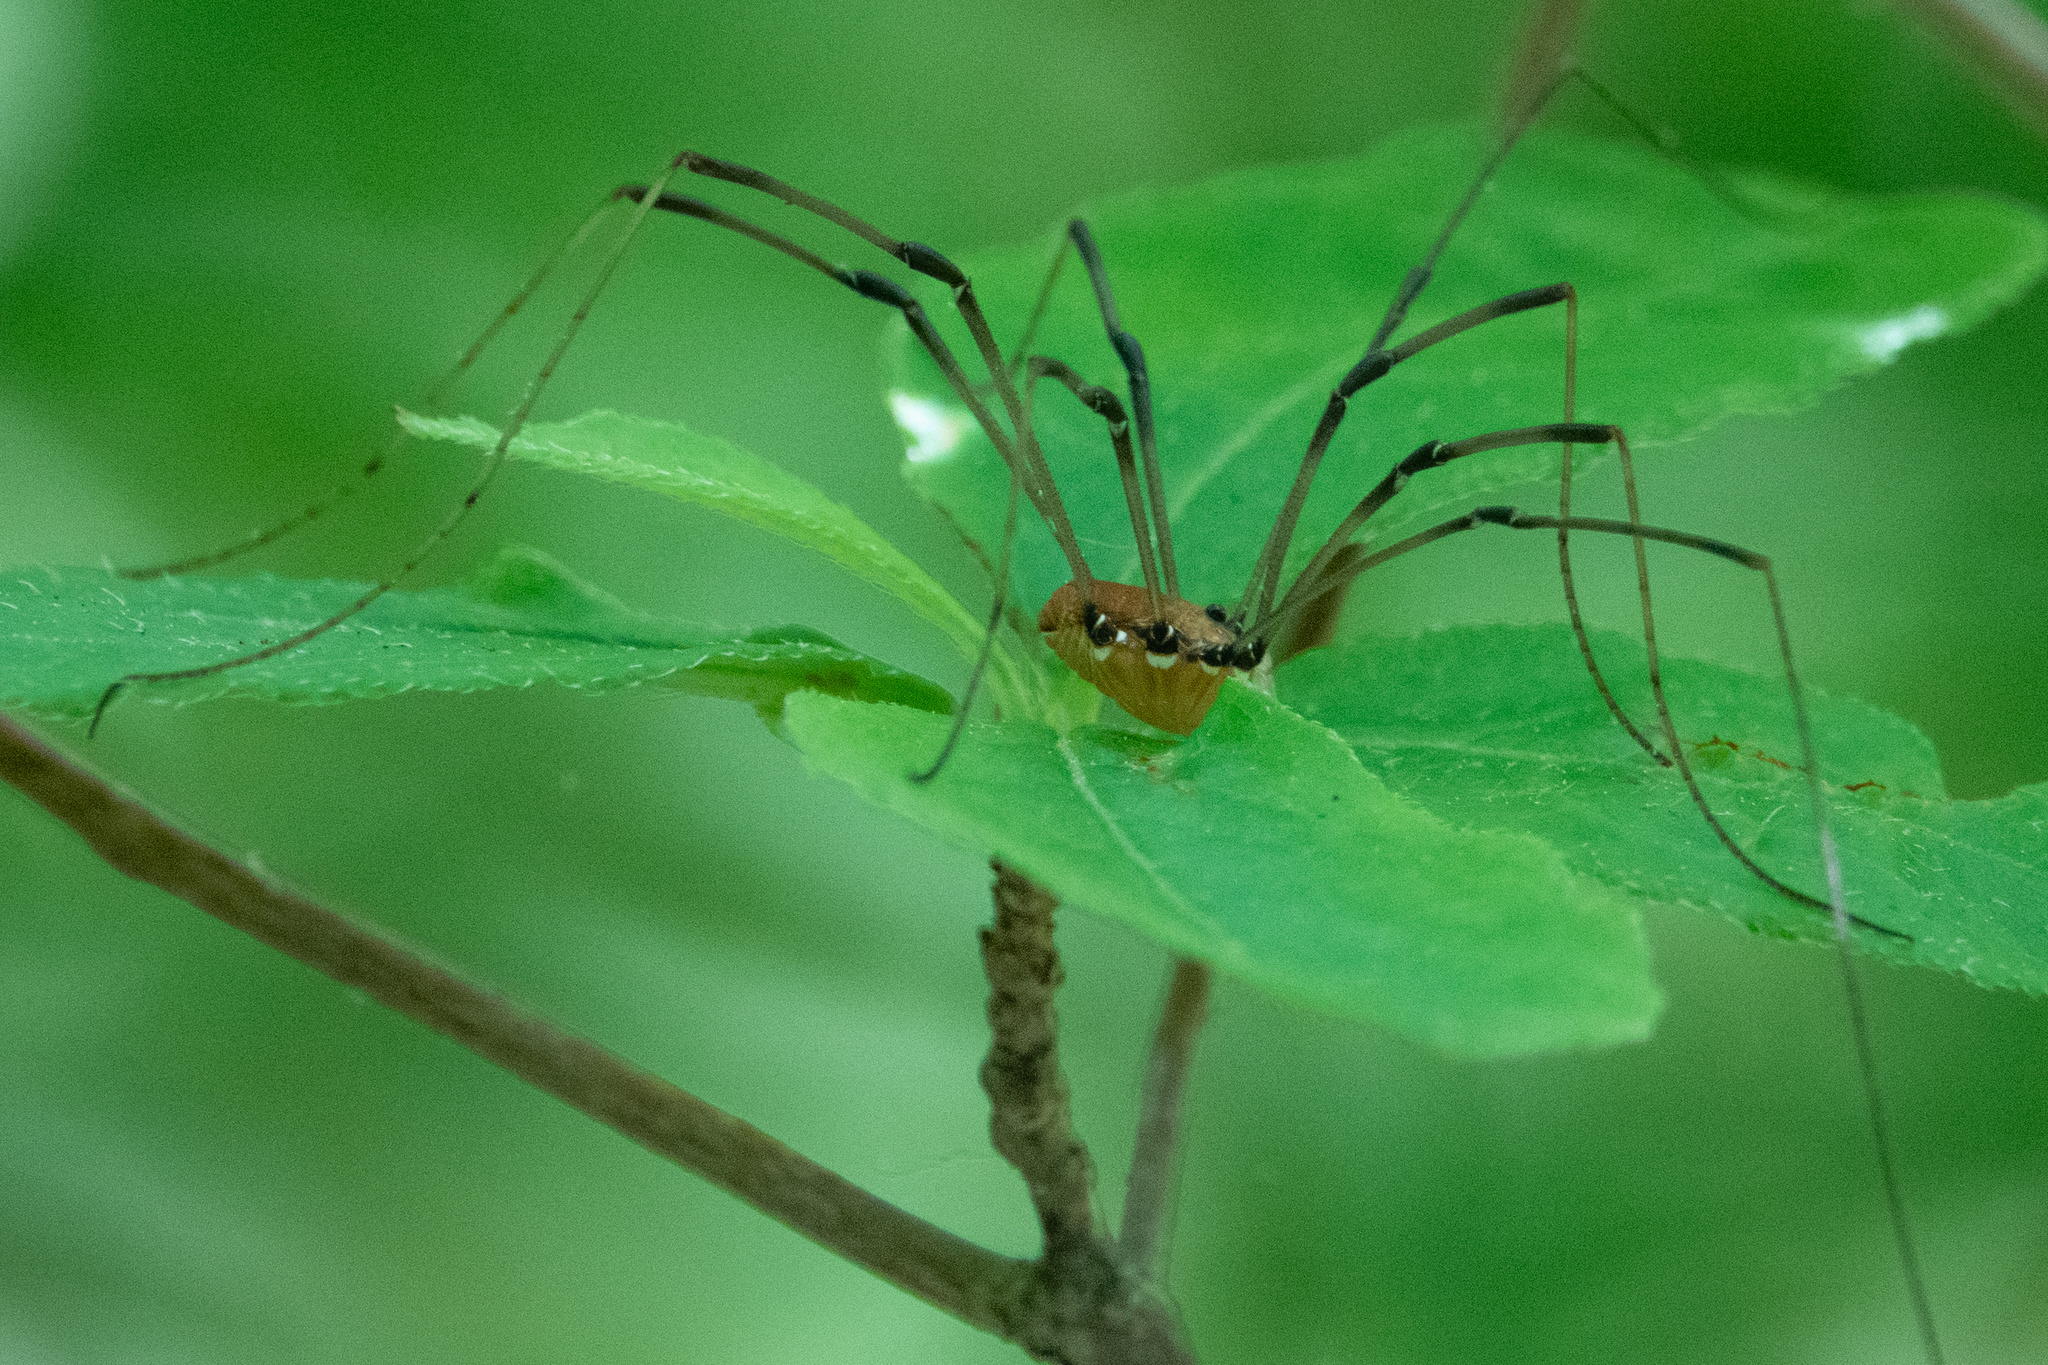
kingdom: Animalia
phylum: Arthropoda
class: Arachnida
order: Opiliones
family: Sclerosomatidae
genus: Leiobunum
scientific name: Leiobunum verrucosum
